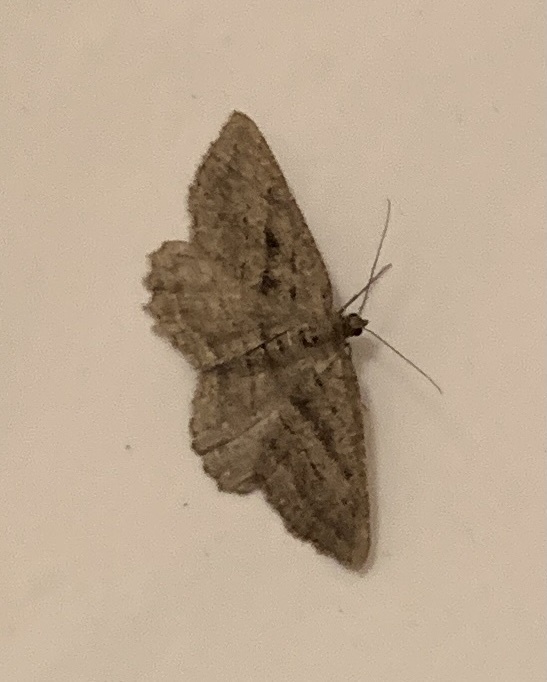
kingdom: Animalia
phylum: Arthropoda
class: Insecta
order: Lepidoptera
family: Geometridae
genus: Rhoptria
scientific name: Rhoptria asperaria
